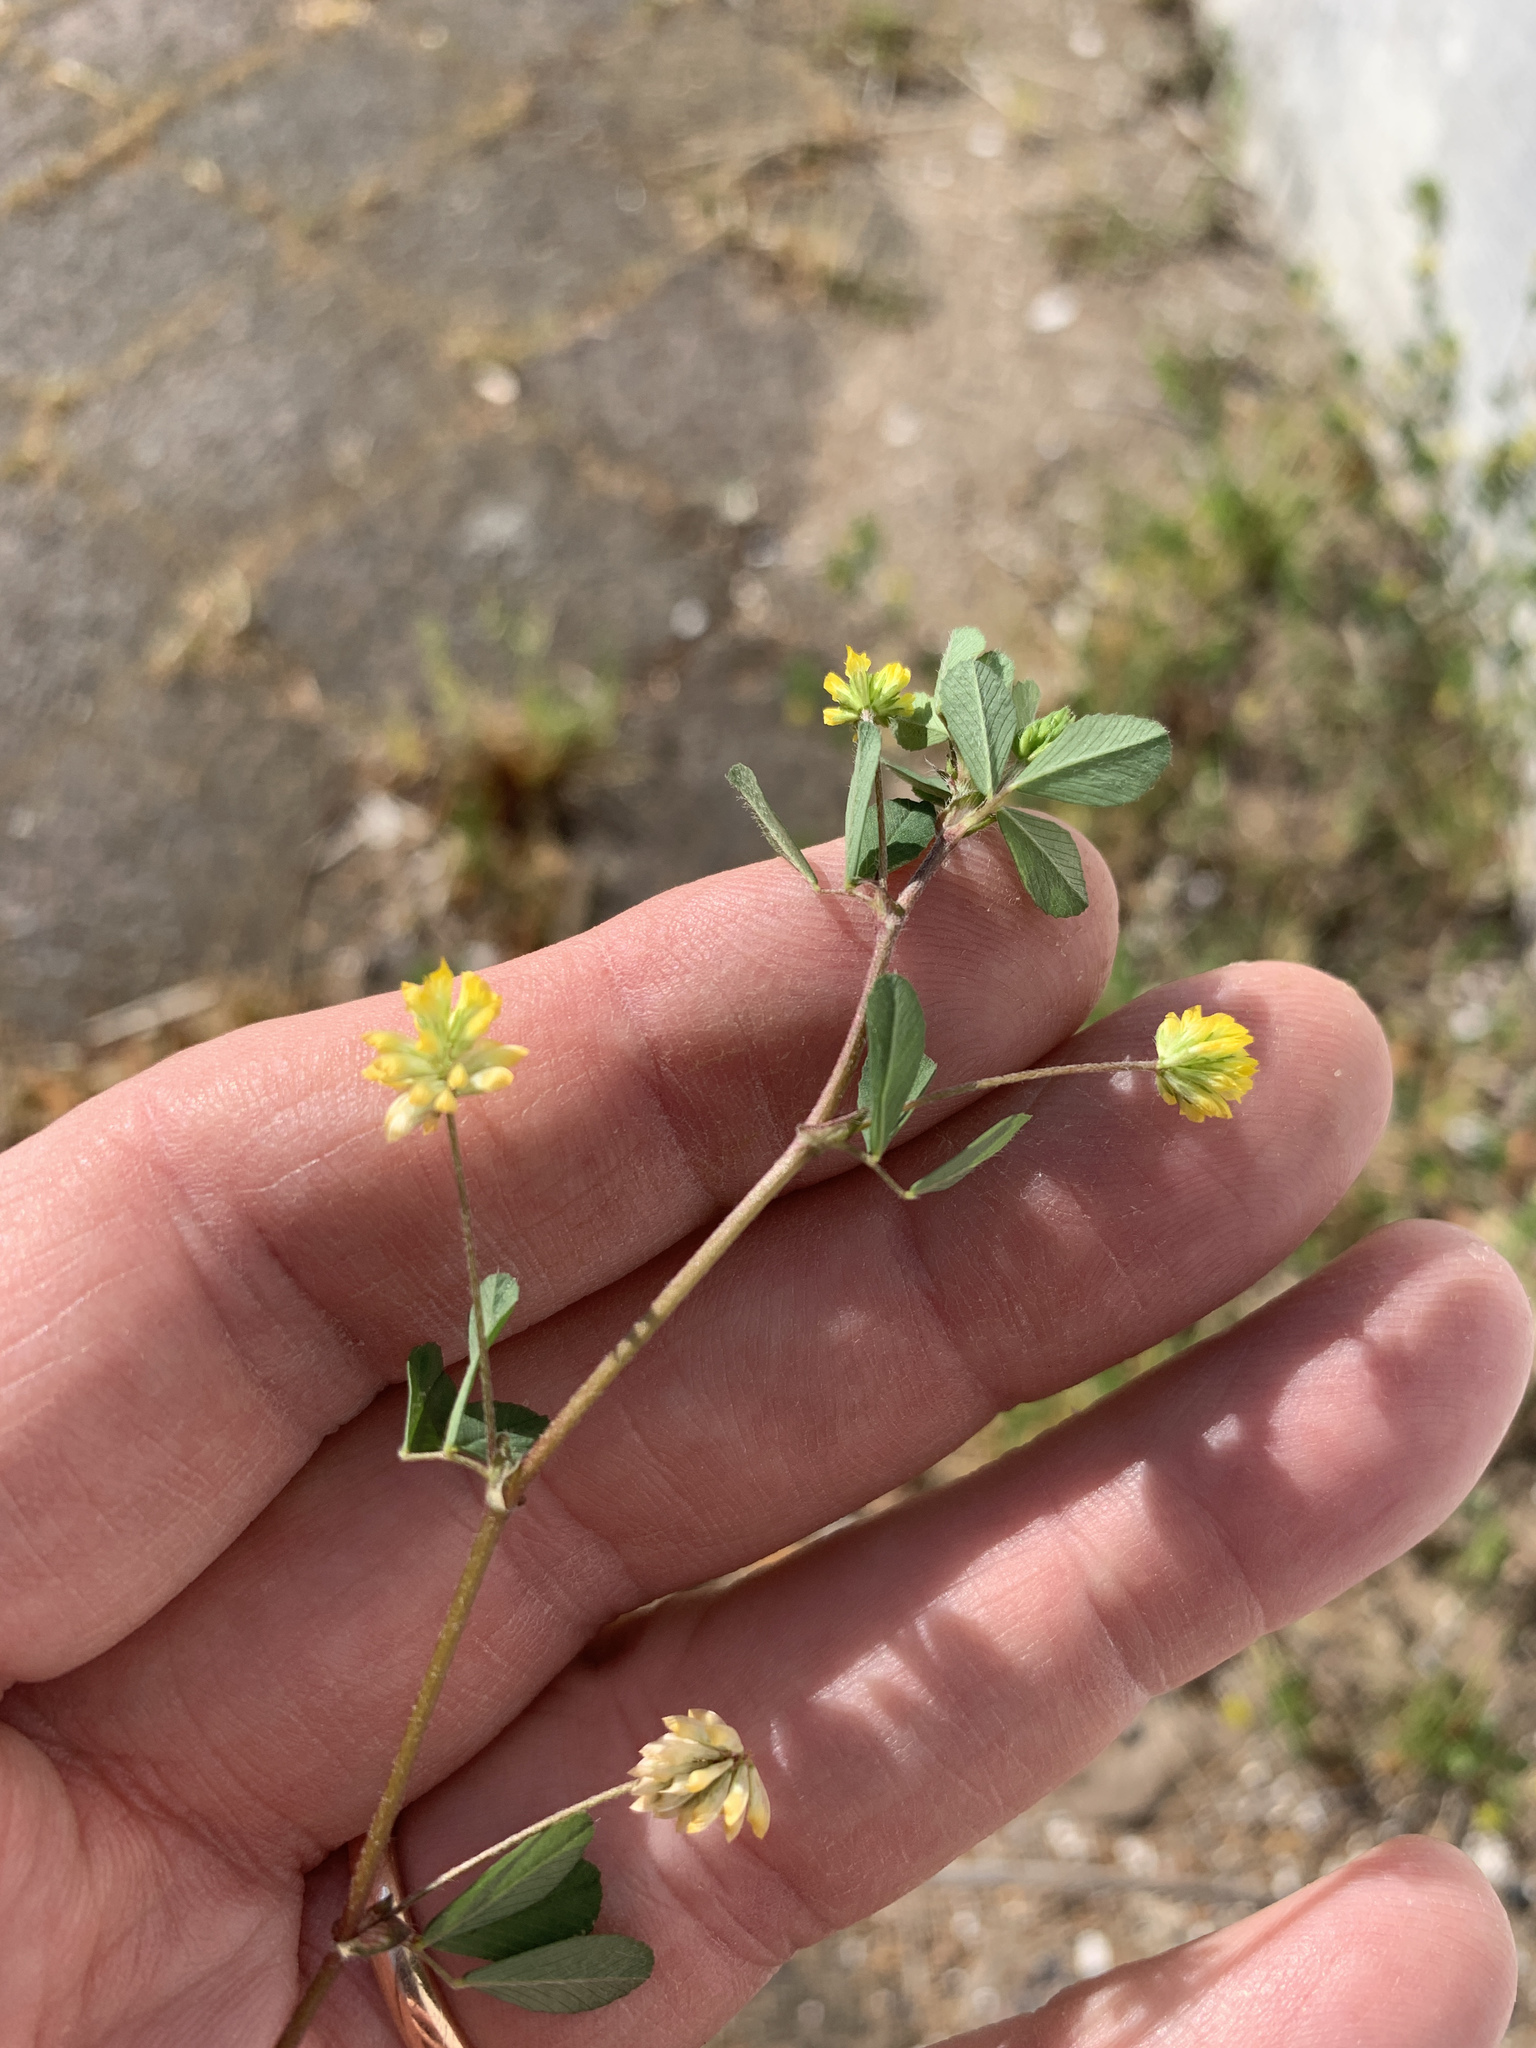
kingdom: Plantae
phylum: Tracheophyta
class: Magnoliopsida
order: Fabales
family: Fabaceae
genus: Trifolium
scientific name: Trifolium dubium
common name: Suckling clover
